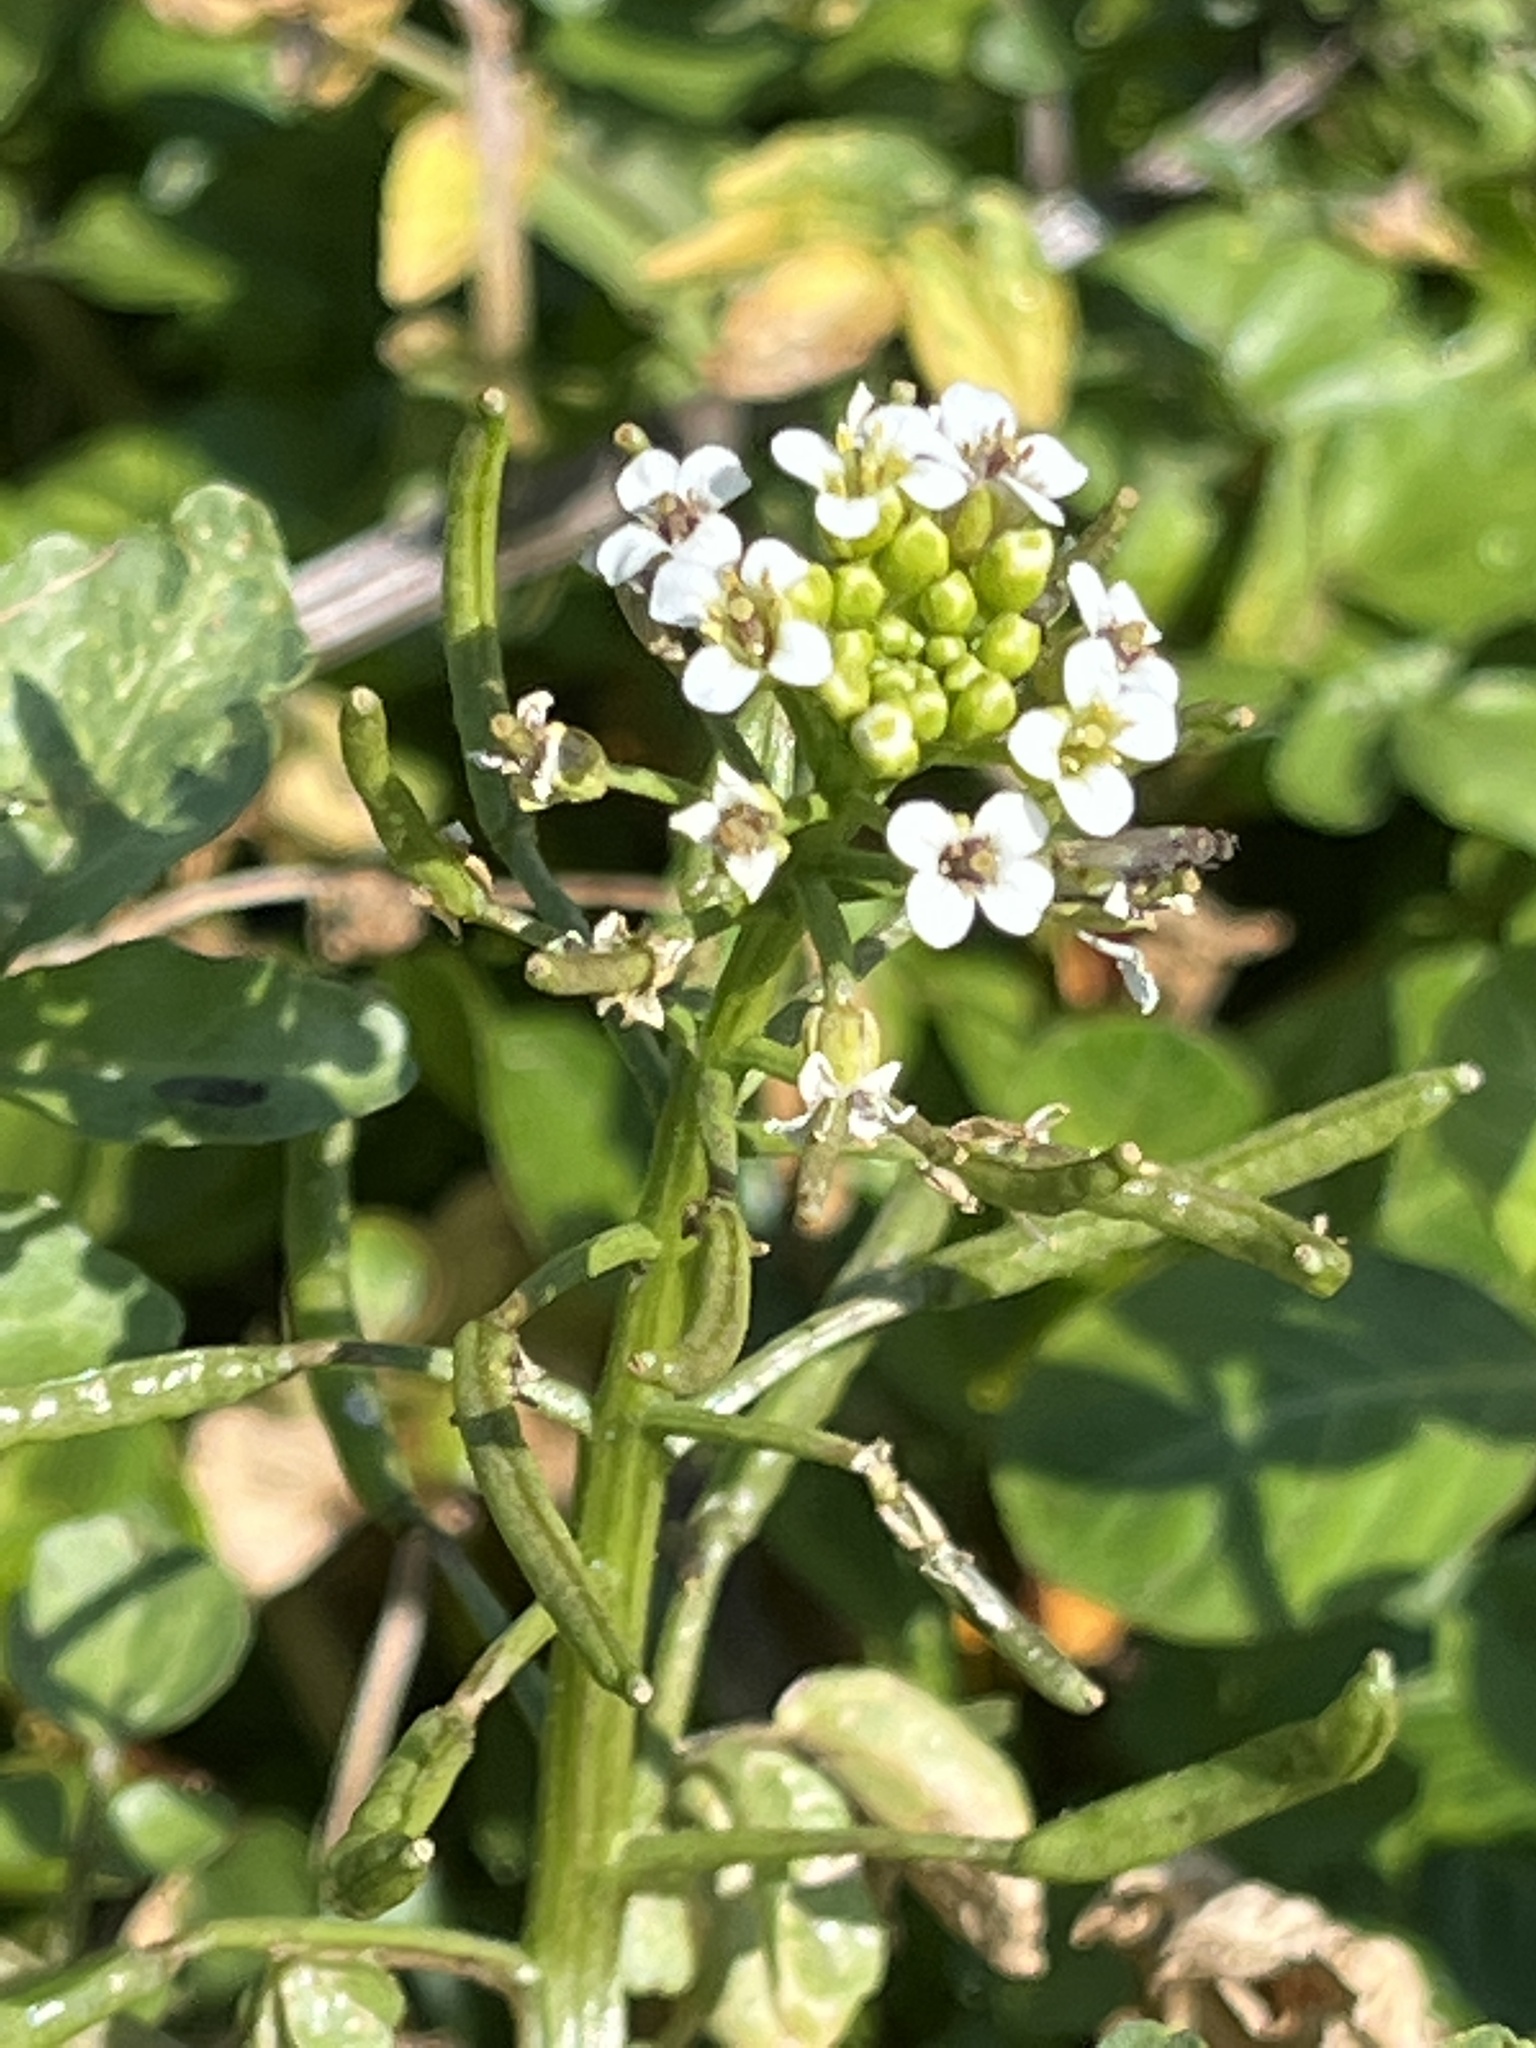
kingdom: Plantae
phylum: Tracheophyta
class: Magnoliopsida
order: Brassicales
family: Brassicaceae
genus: Nasturtium
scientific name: Nasturtium officinale
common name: Watercress
